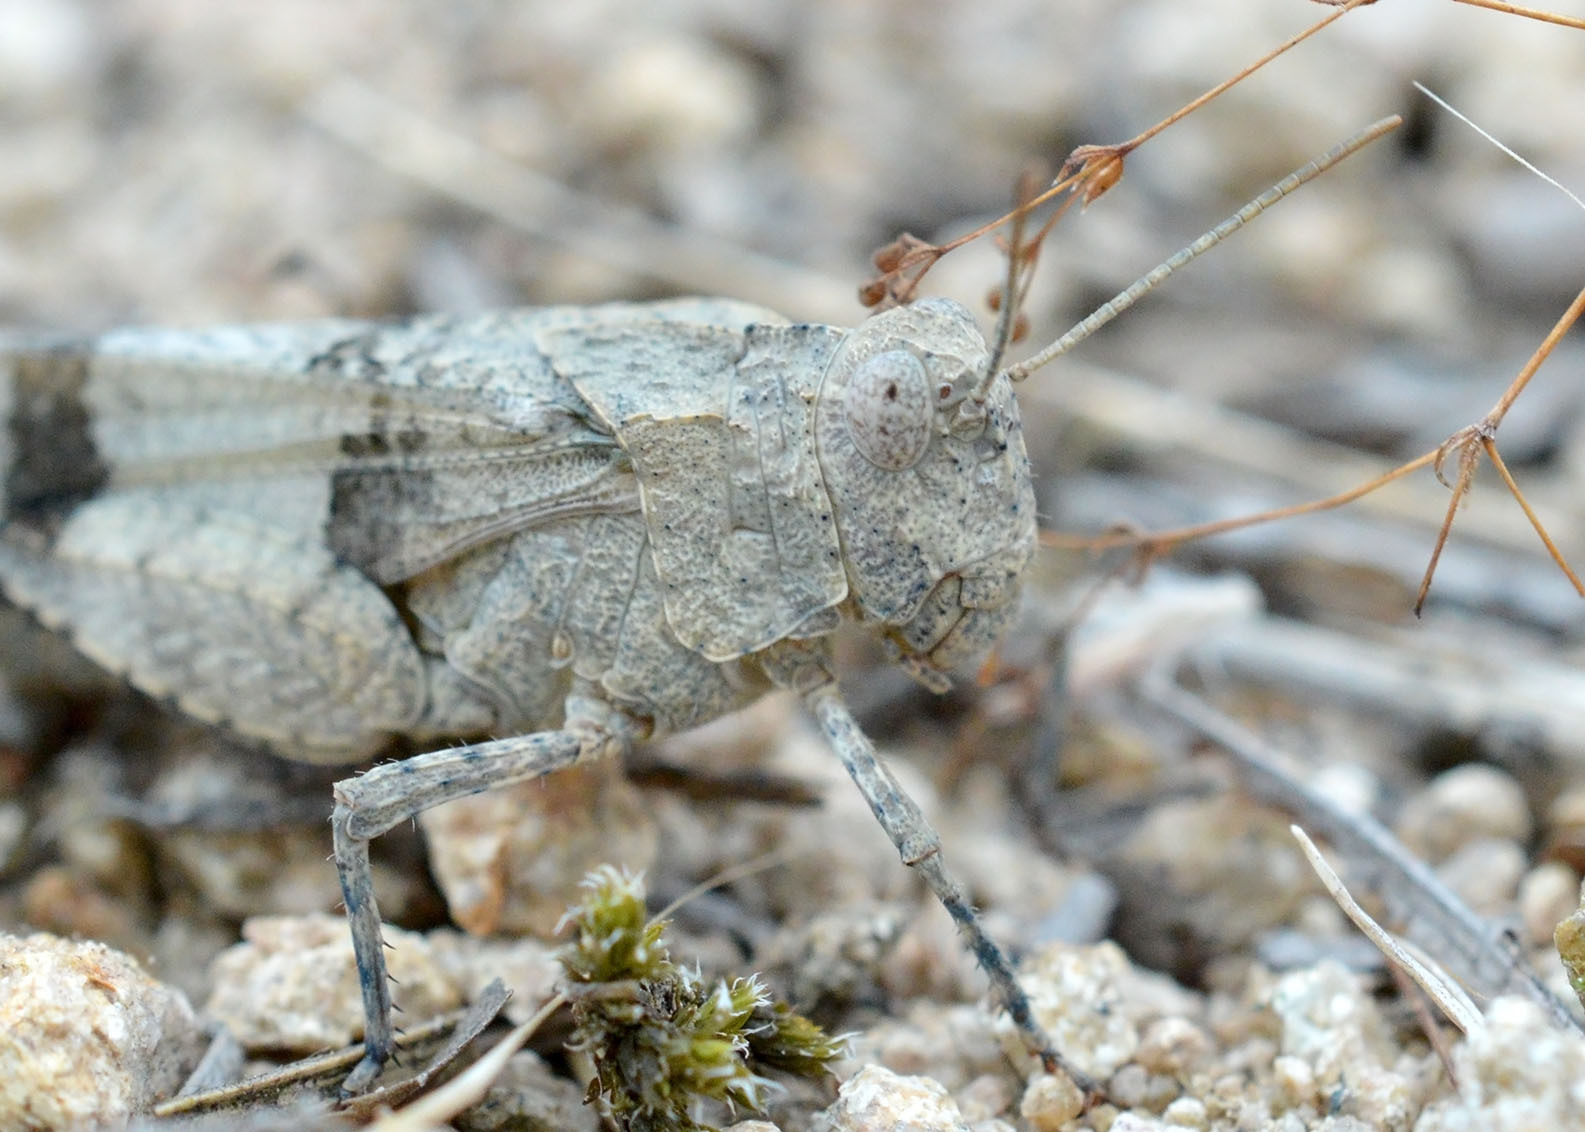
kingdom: Animalia
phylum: Arthropoda
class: Insecta
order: Orthoptera
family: Acrididae
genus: Oedipoda
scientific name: Oedipoda caerulescens
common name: Blue-winged grasshopper
